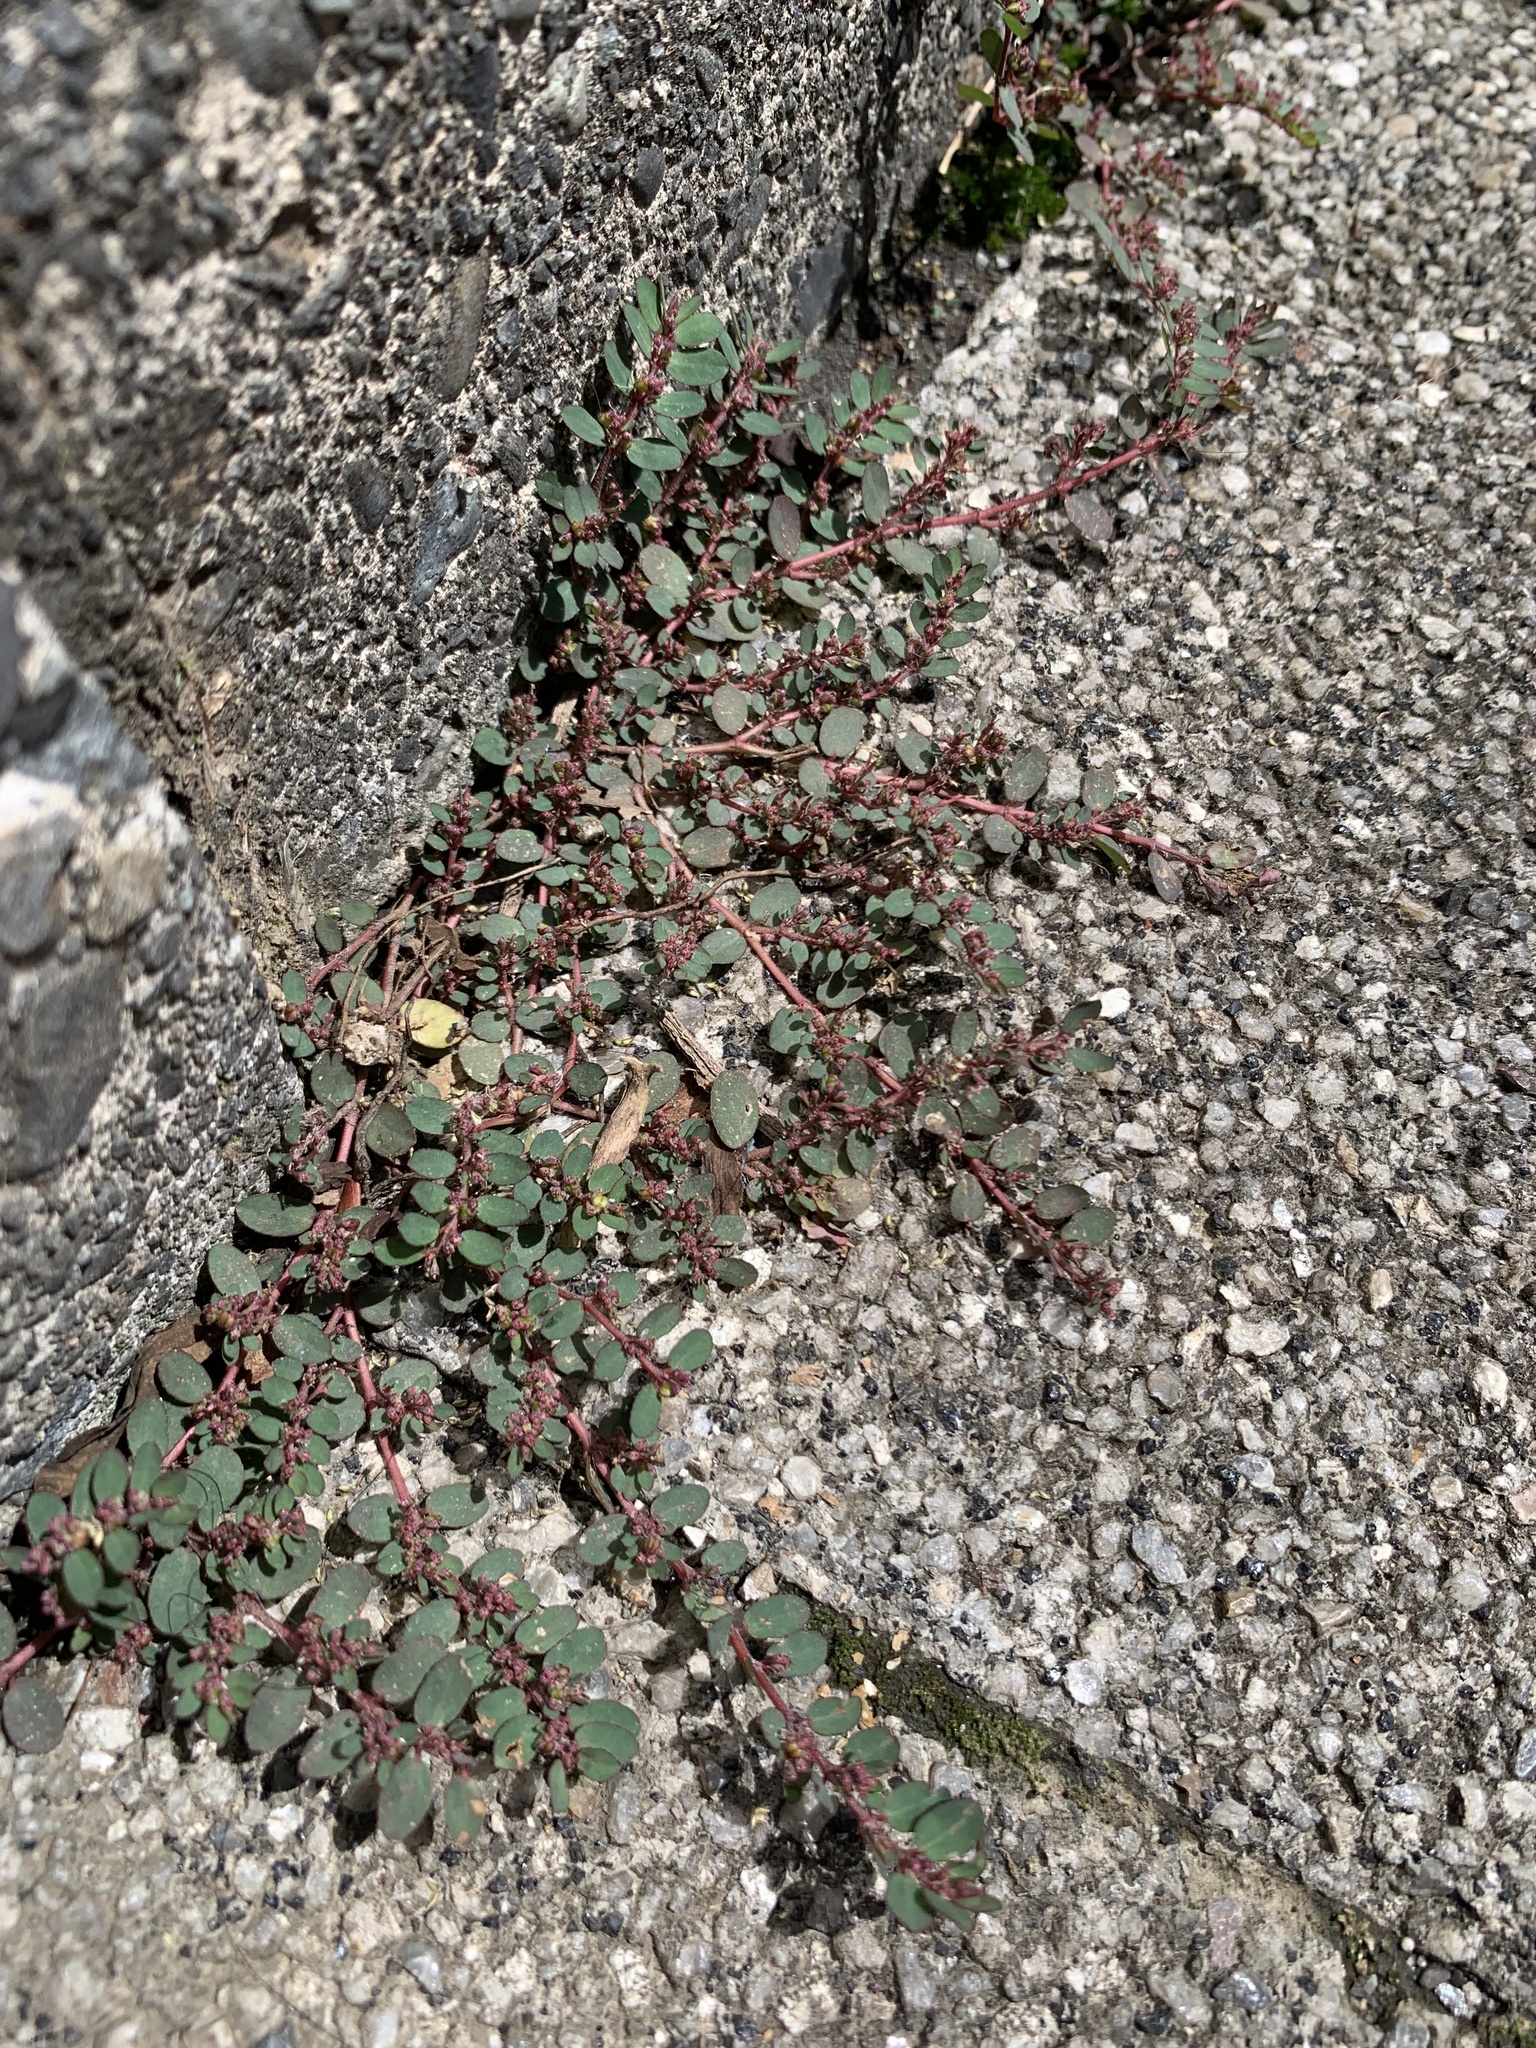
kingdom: Plantae
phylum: Tracheophyta
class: Magnoliopsida
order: Malpighiales
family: Euphorbiaceae
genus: Euphorbia
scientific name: Euphorbia prostrata
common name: Prostrate sandmat
